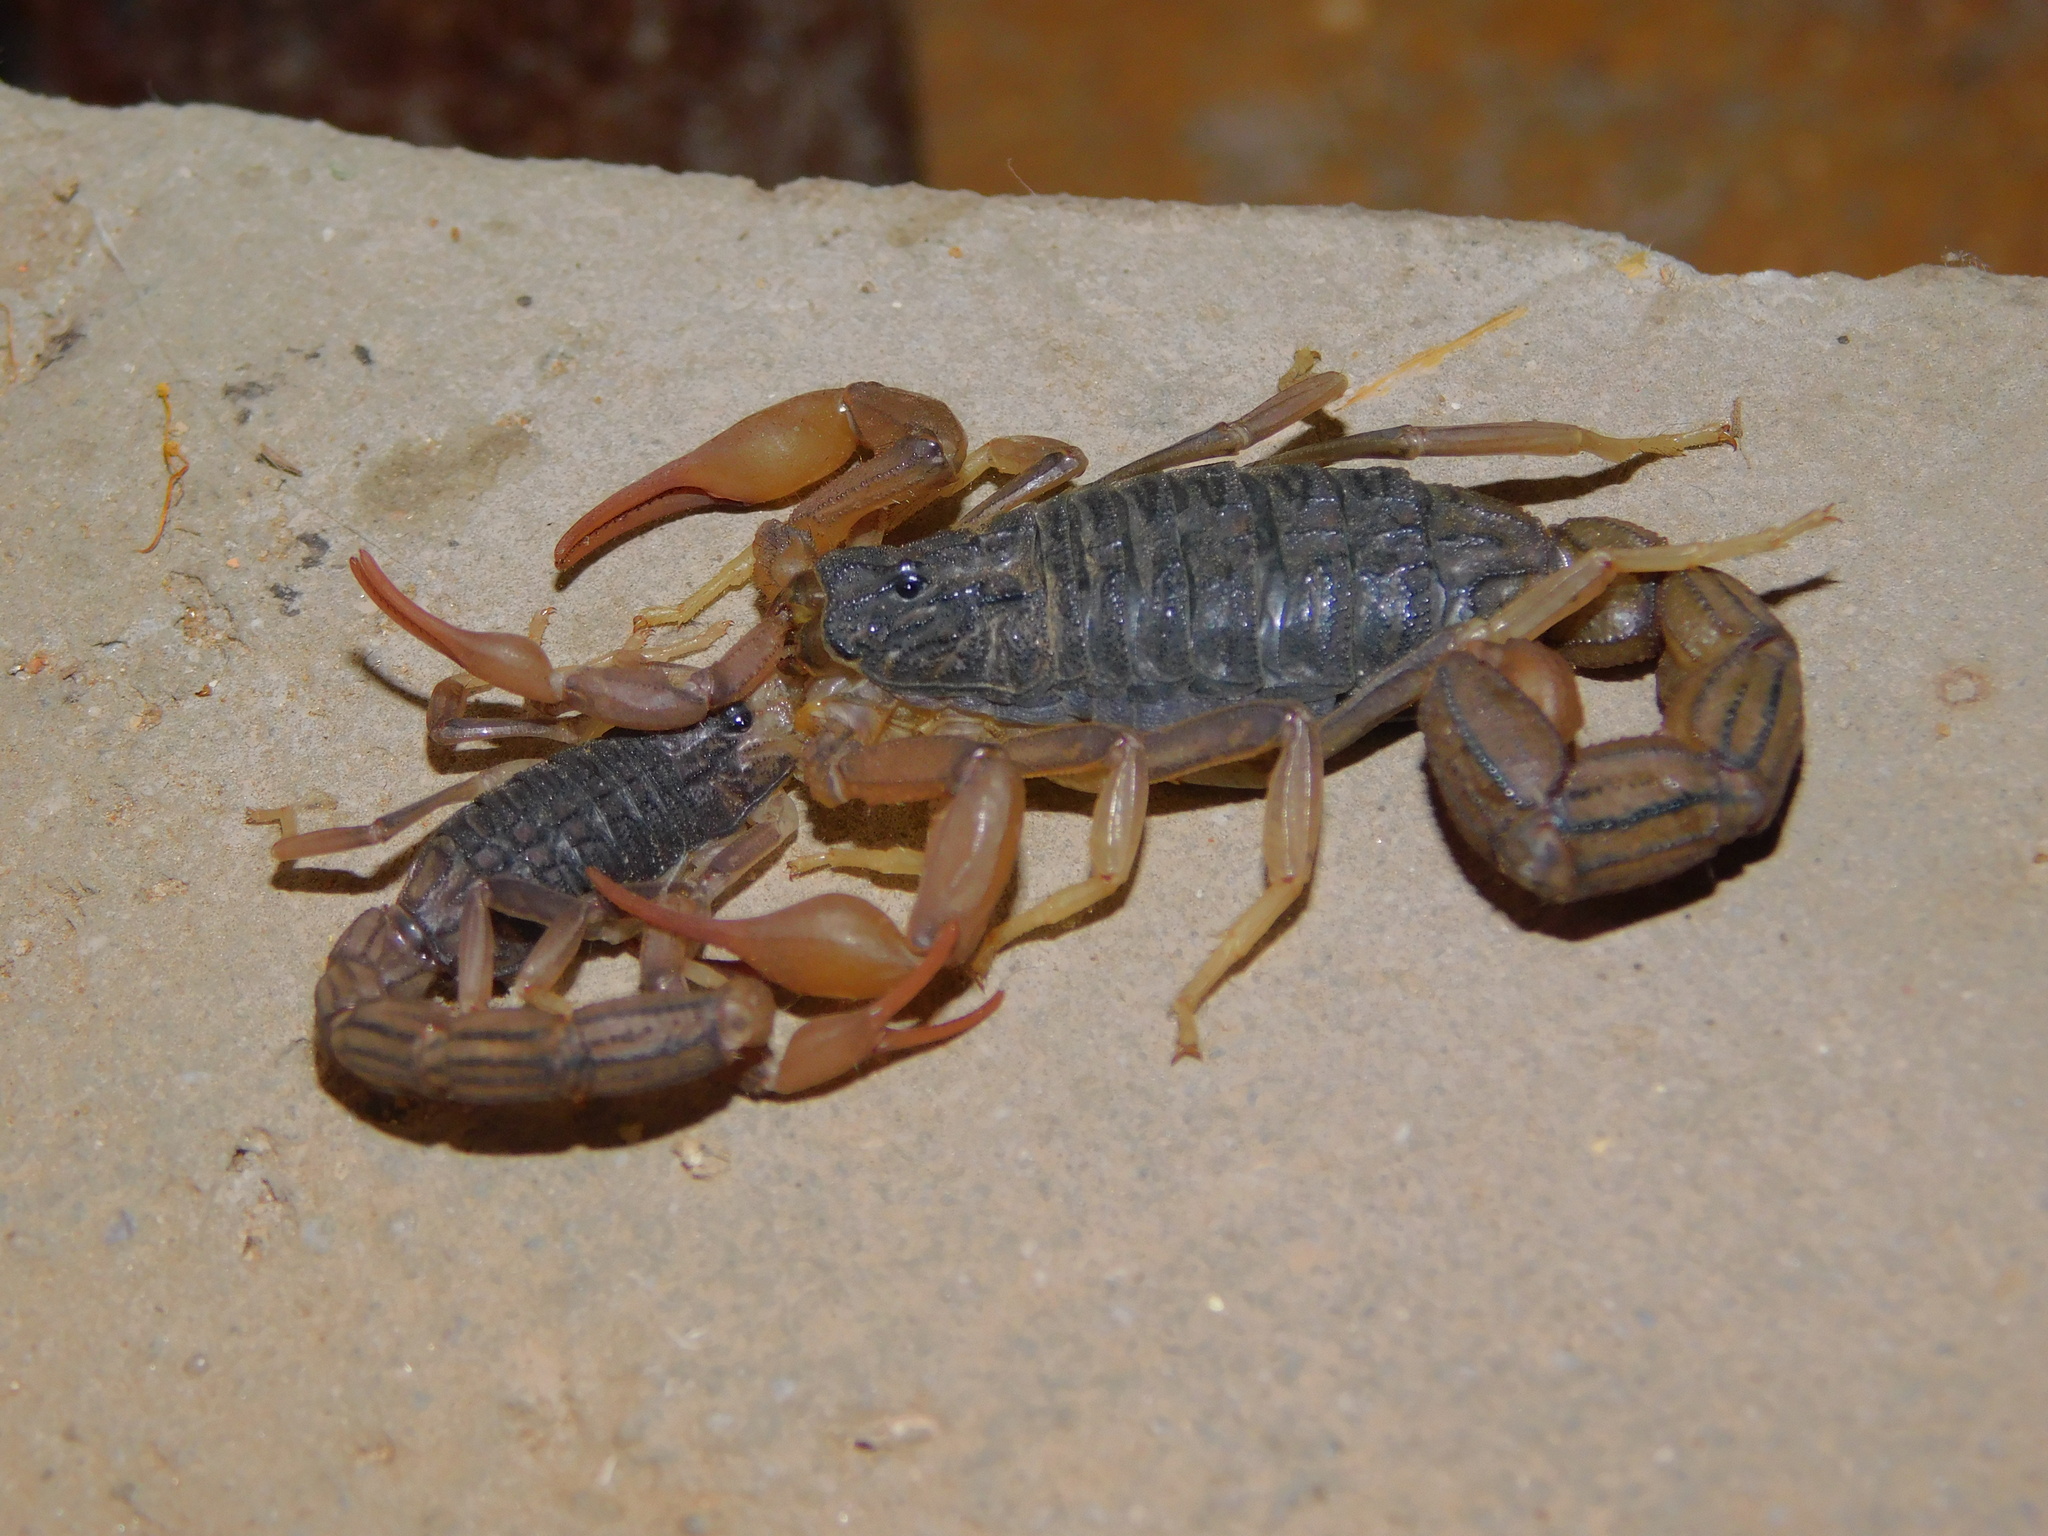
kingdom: Animalia
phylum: Arthropoda
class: Arachnida
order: Scorpiones
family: Buthidae
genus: Hottentotta
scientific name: Hottentotta ugandaensis
